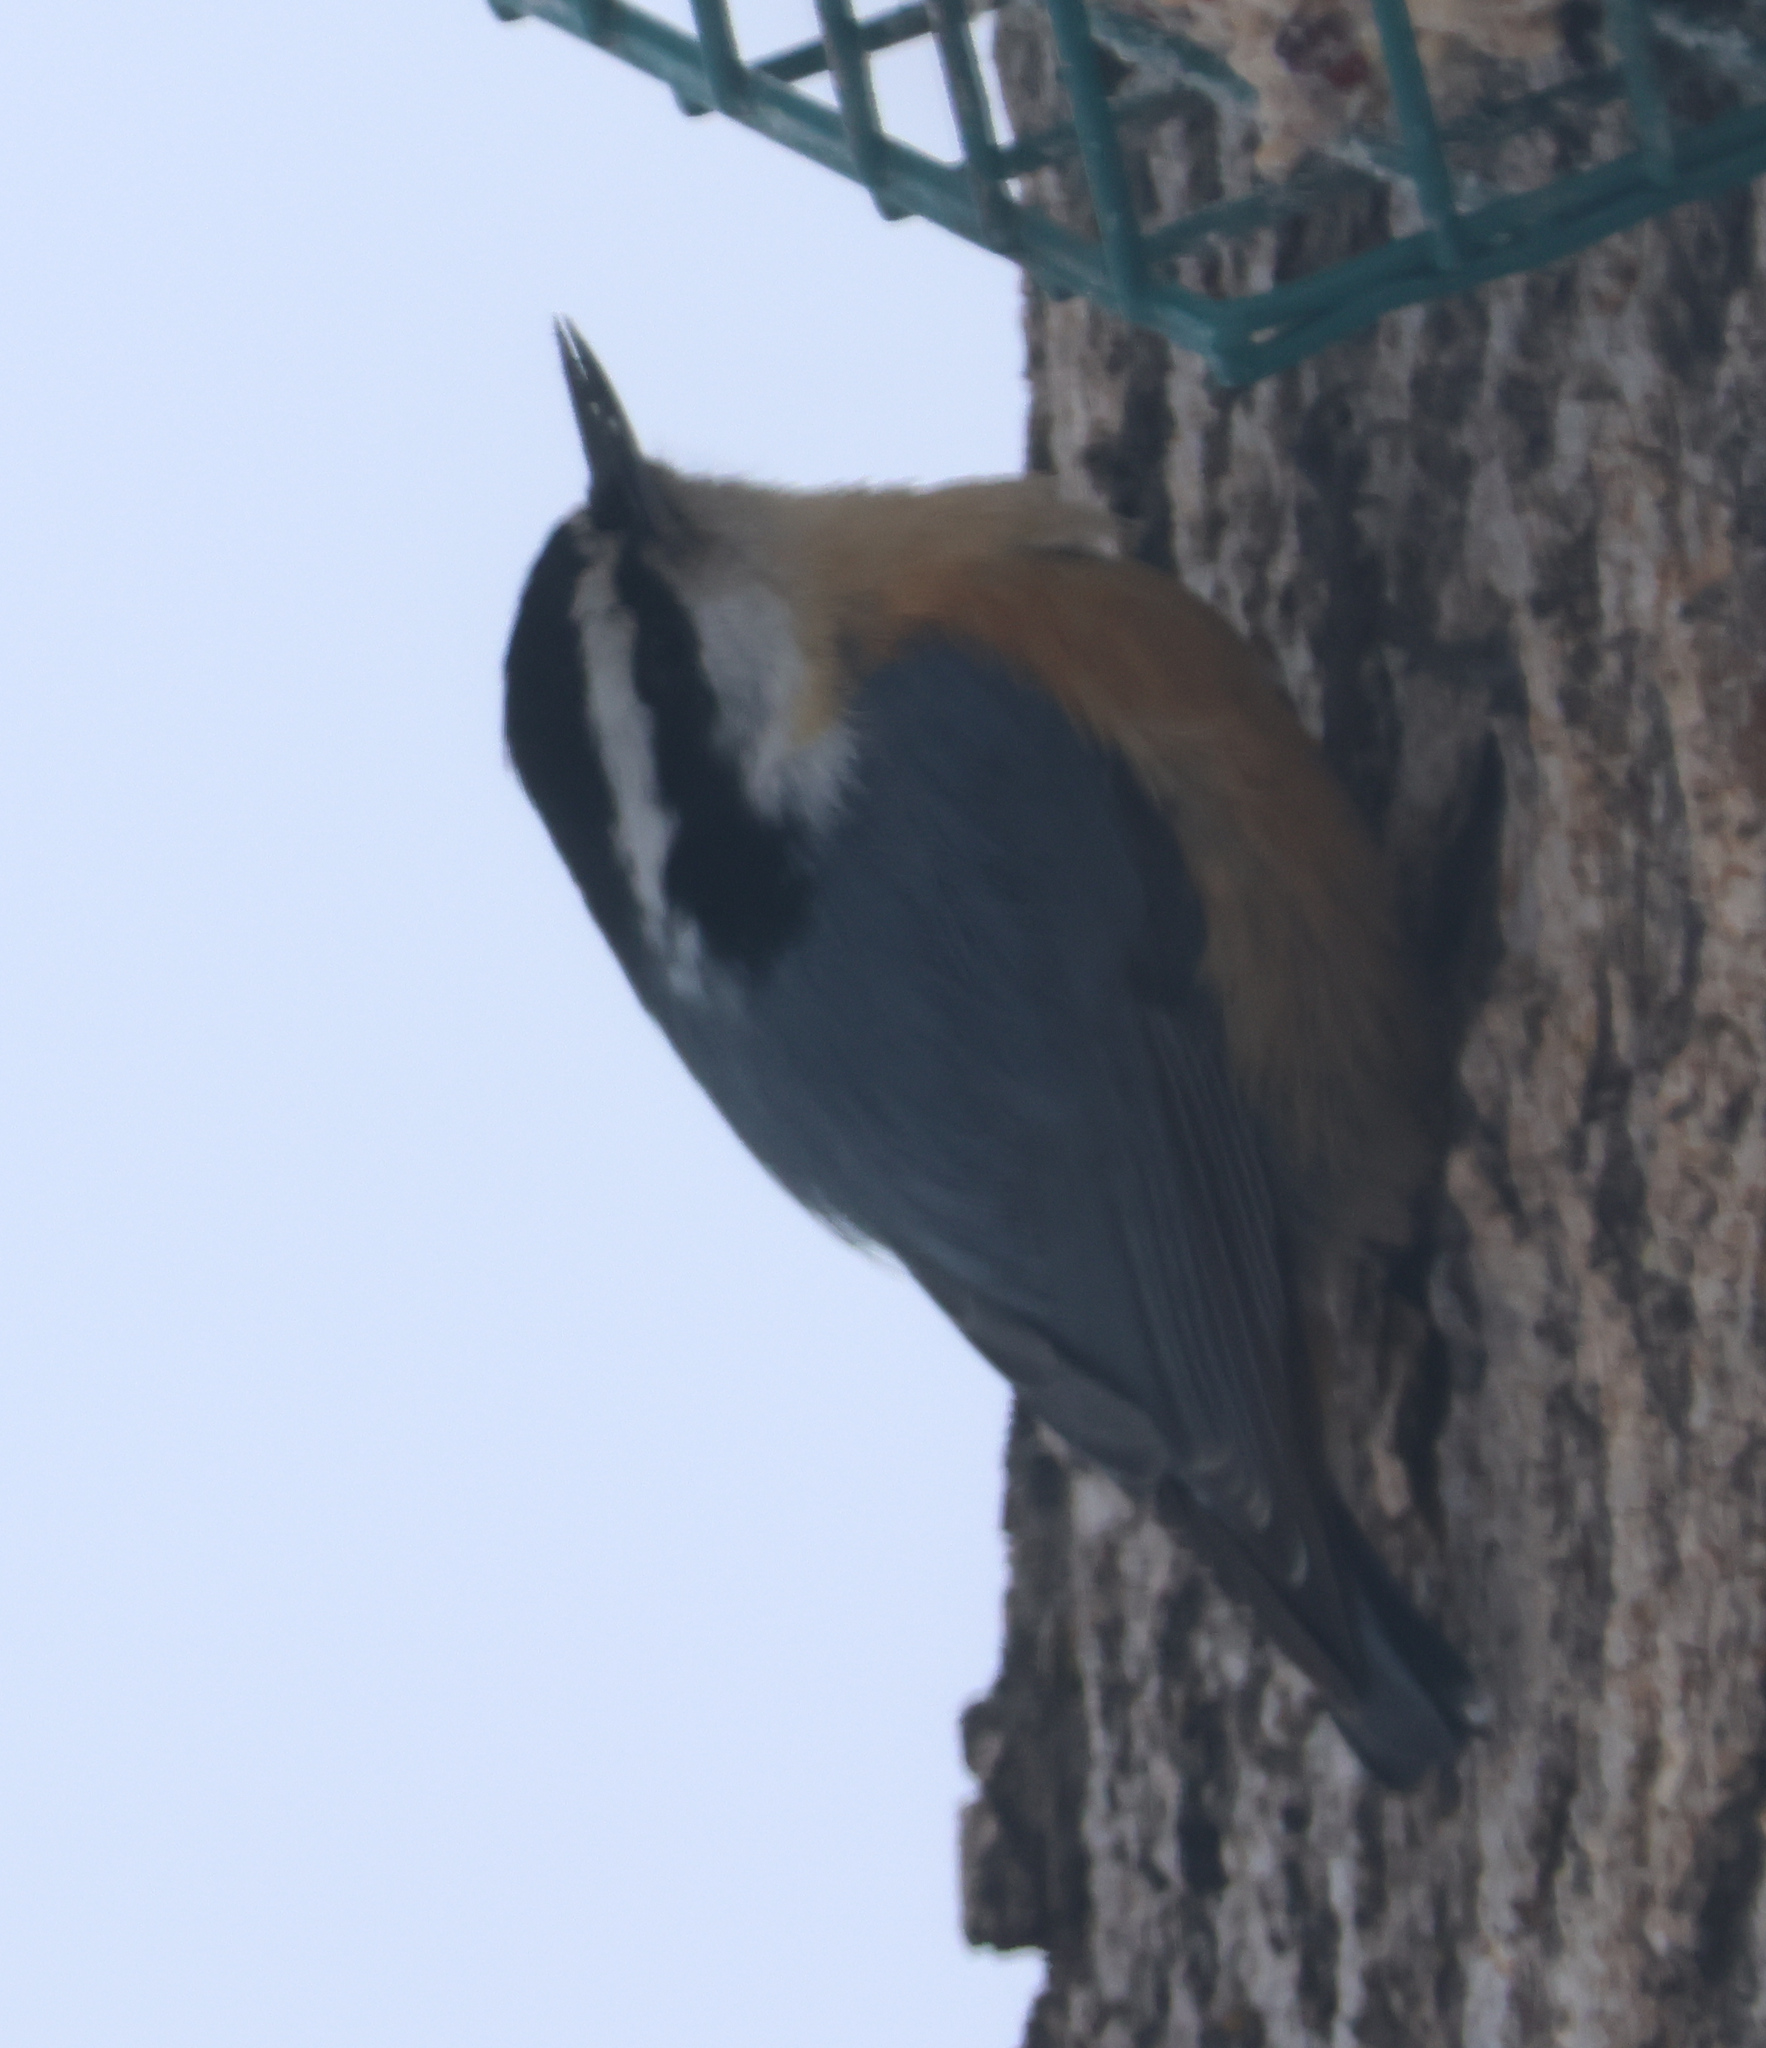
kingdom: Animalia
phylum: Chordata
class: Aves
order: Passeriformes
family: Sittidae
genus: Sitta
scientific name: Sitta canadensis
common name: Red-breasted nuthatch
